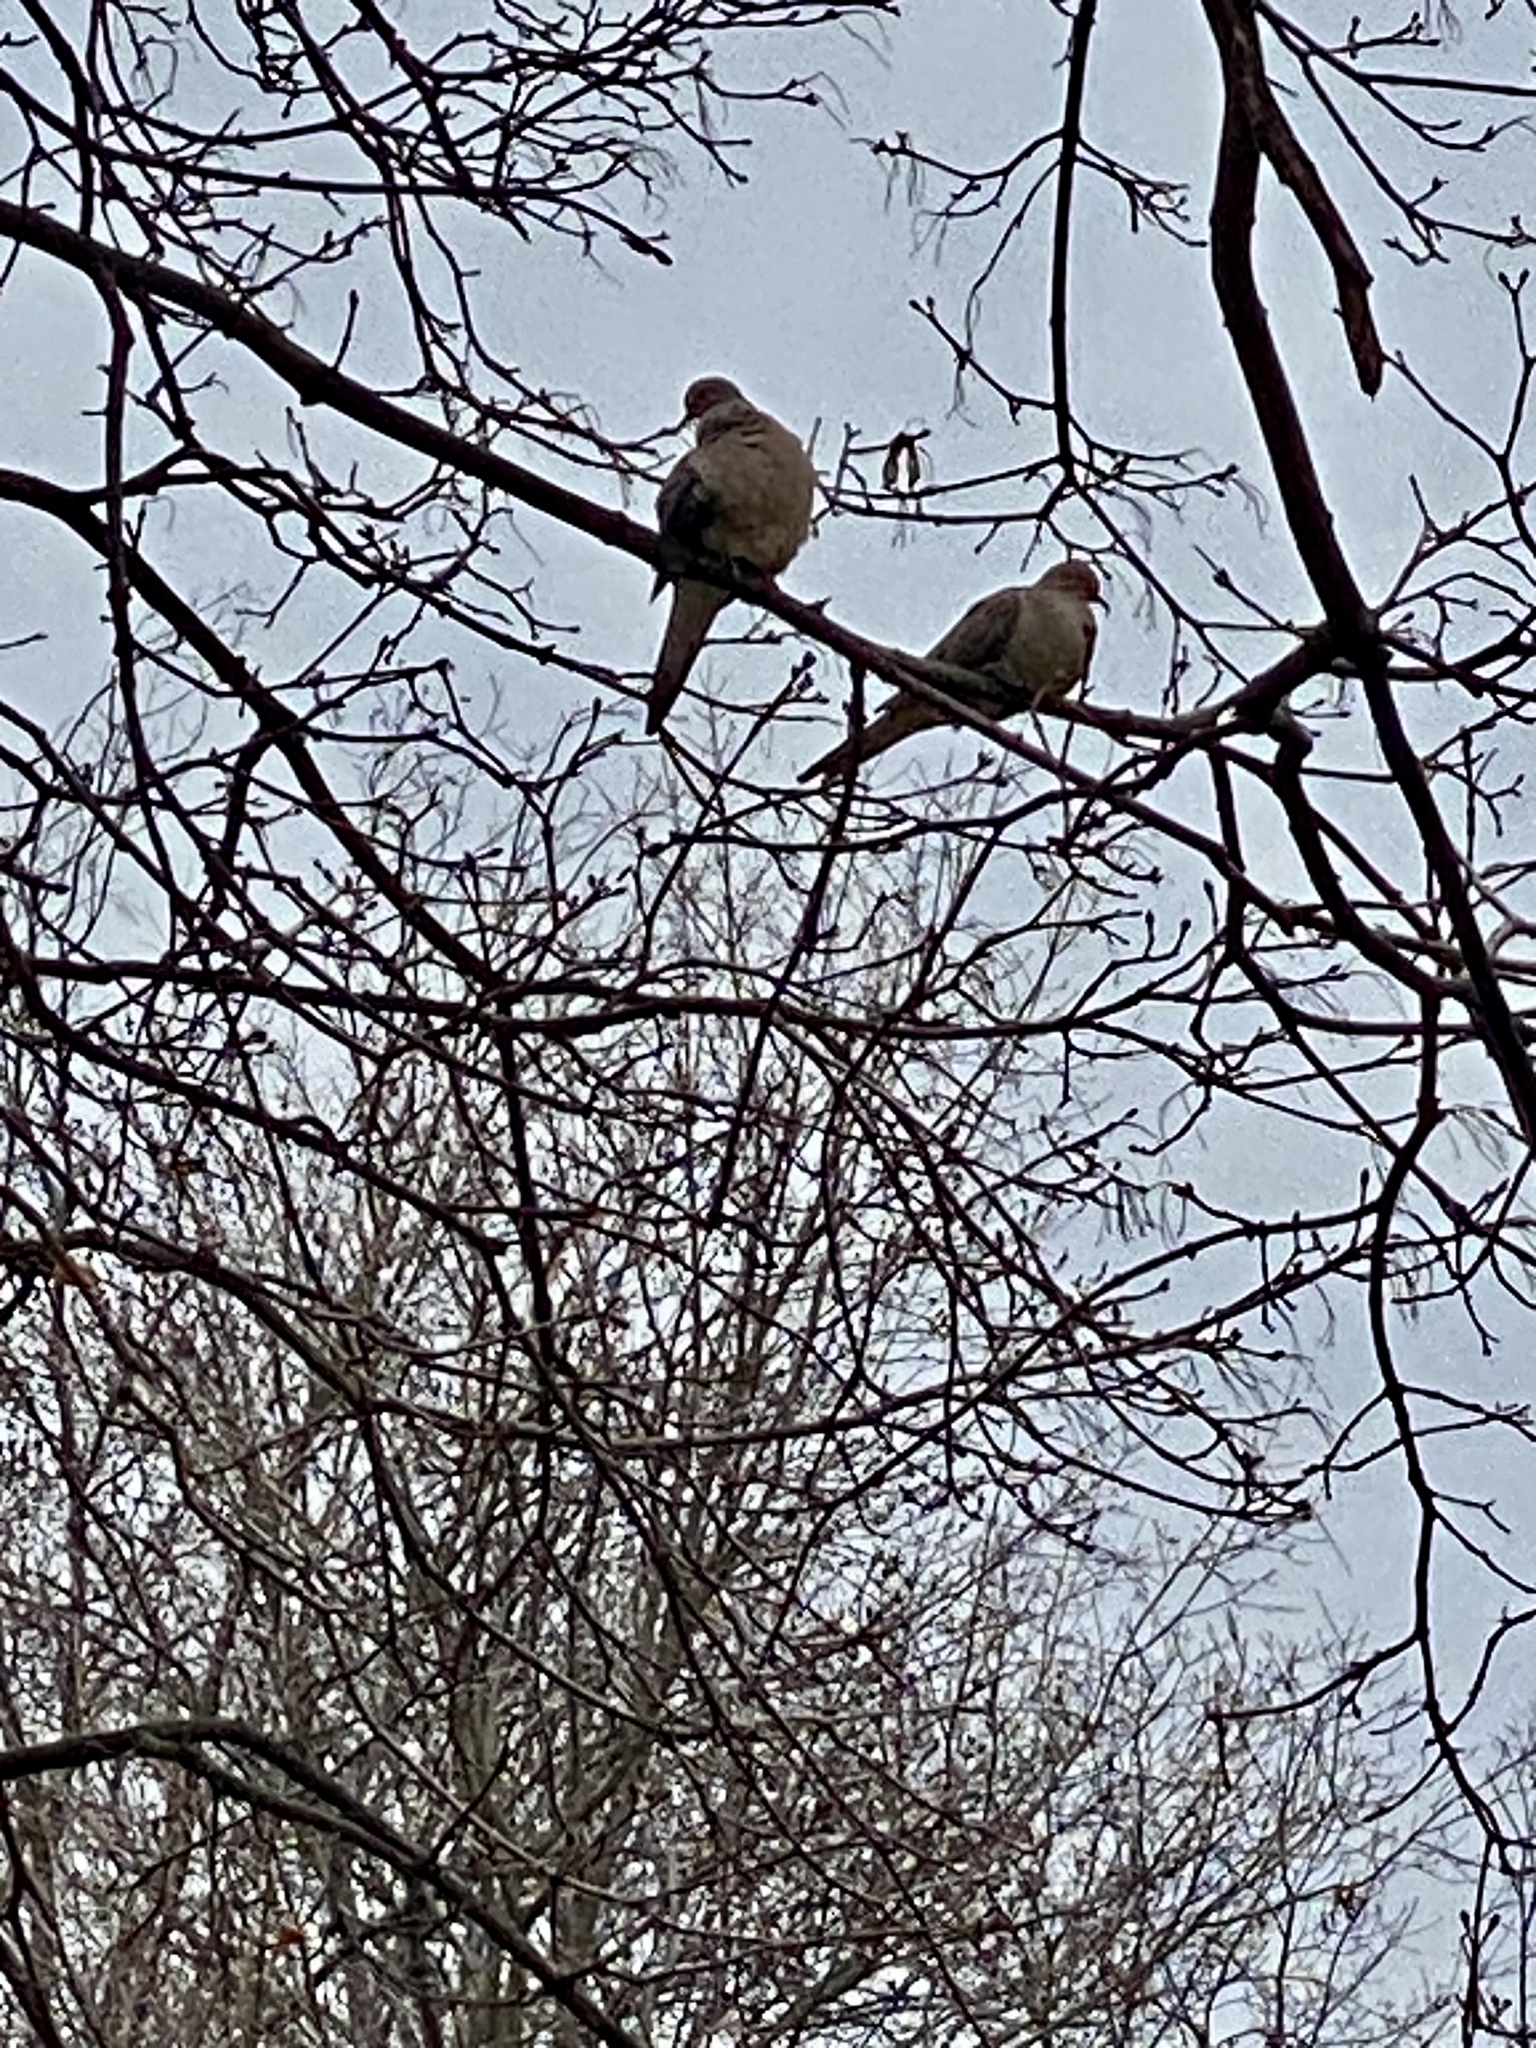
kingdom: Animalia
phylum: Chordata
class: Aves
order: Columbiformes
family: Columbidae
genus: Zenaida
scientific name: Zenaida macroura
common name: Mourning dove
